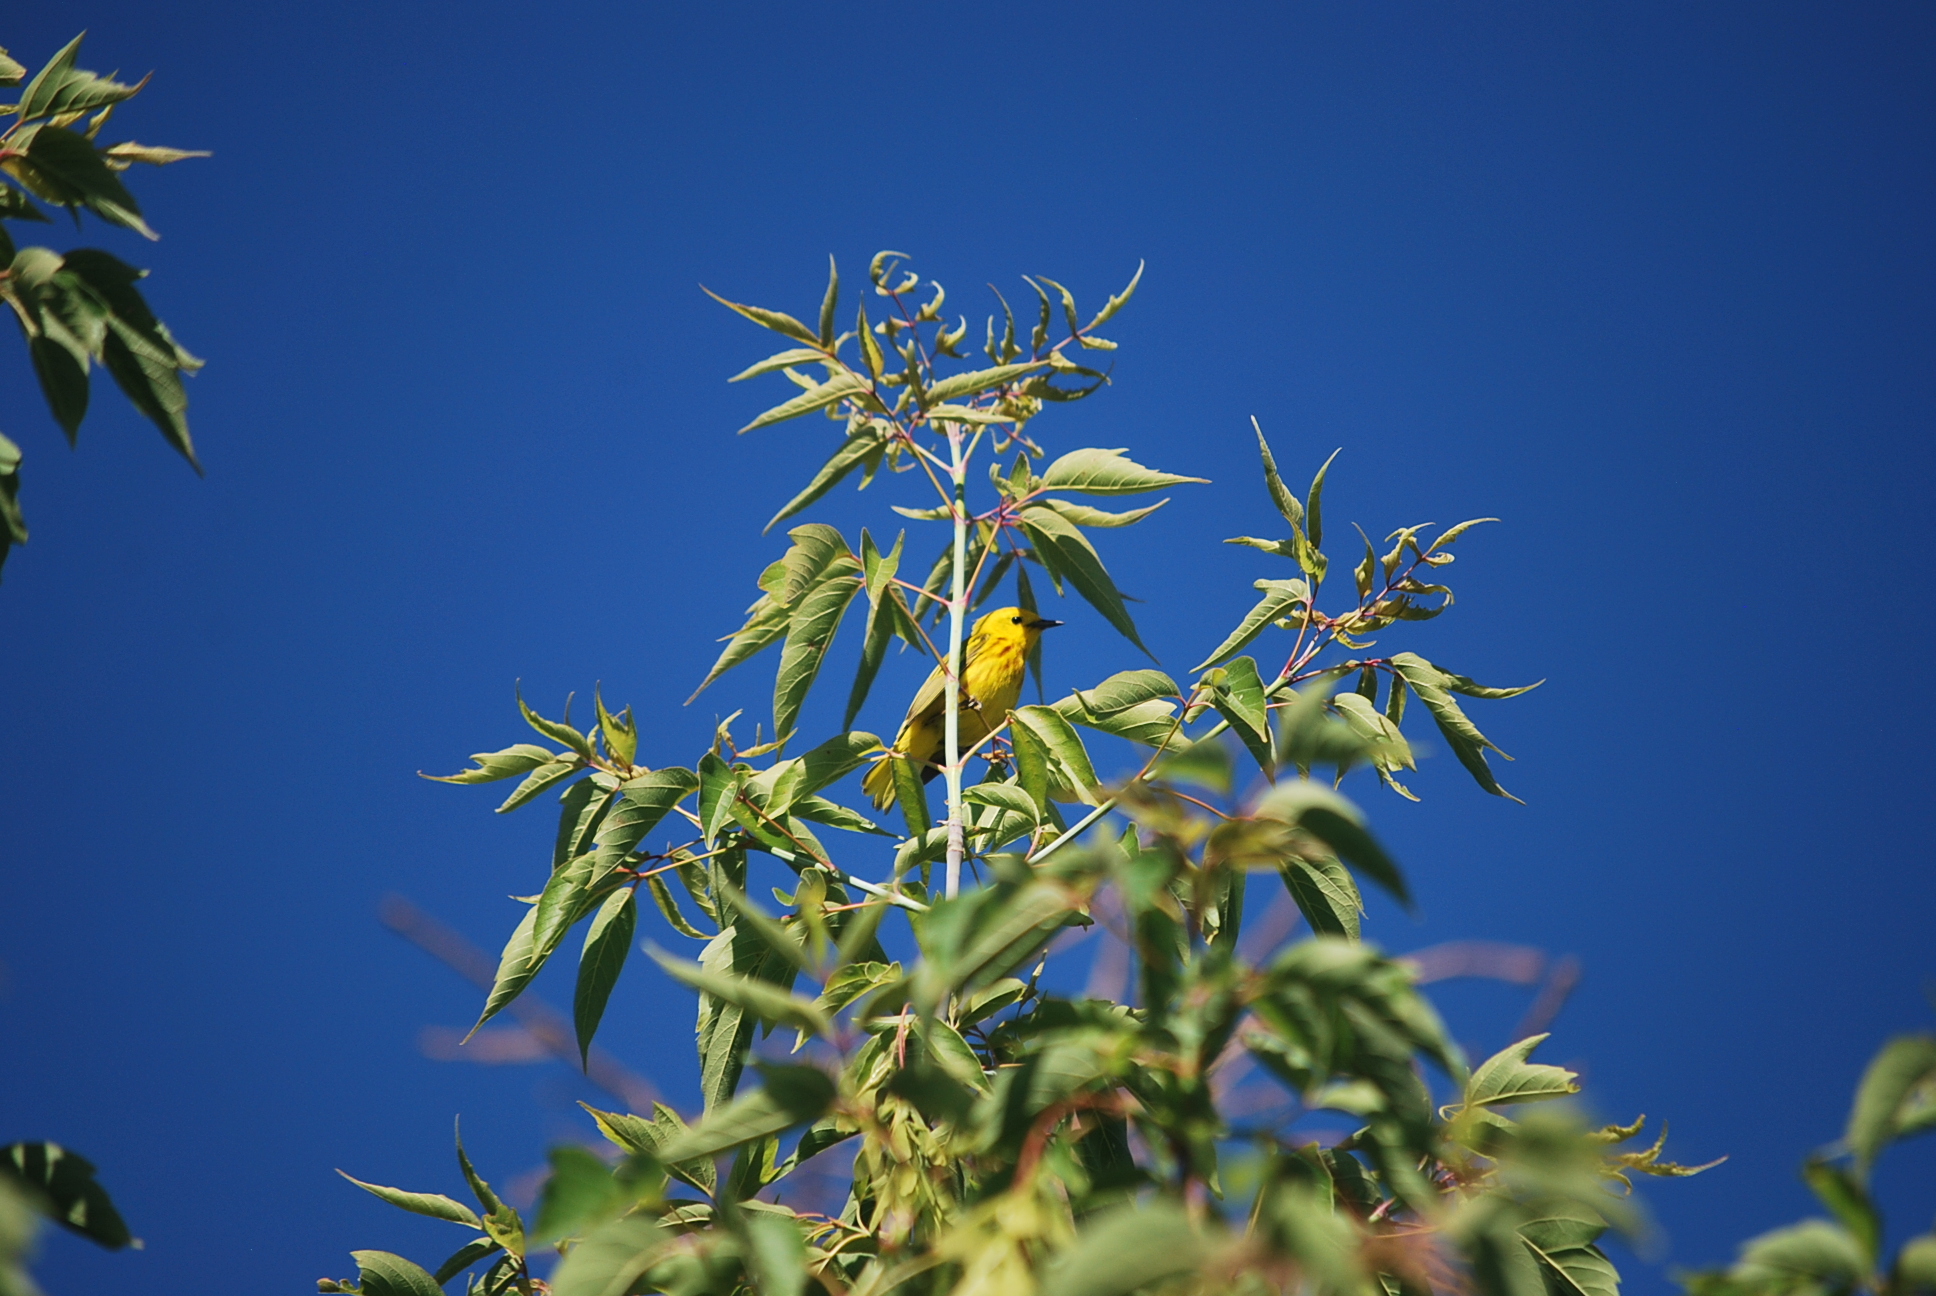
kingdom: Animalia
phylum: Chordata
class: Aves
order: Passeriformes
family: Parulidae
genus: Setophaga
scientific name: Setophaga petechia
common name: Yellow warbler
